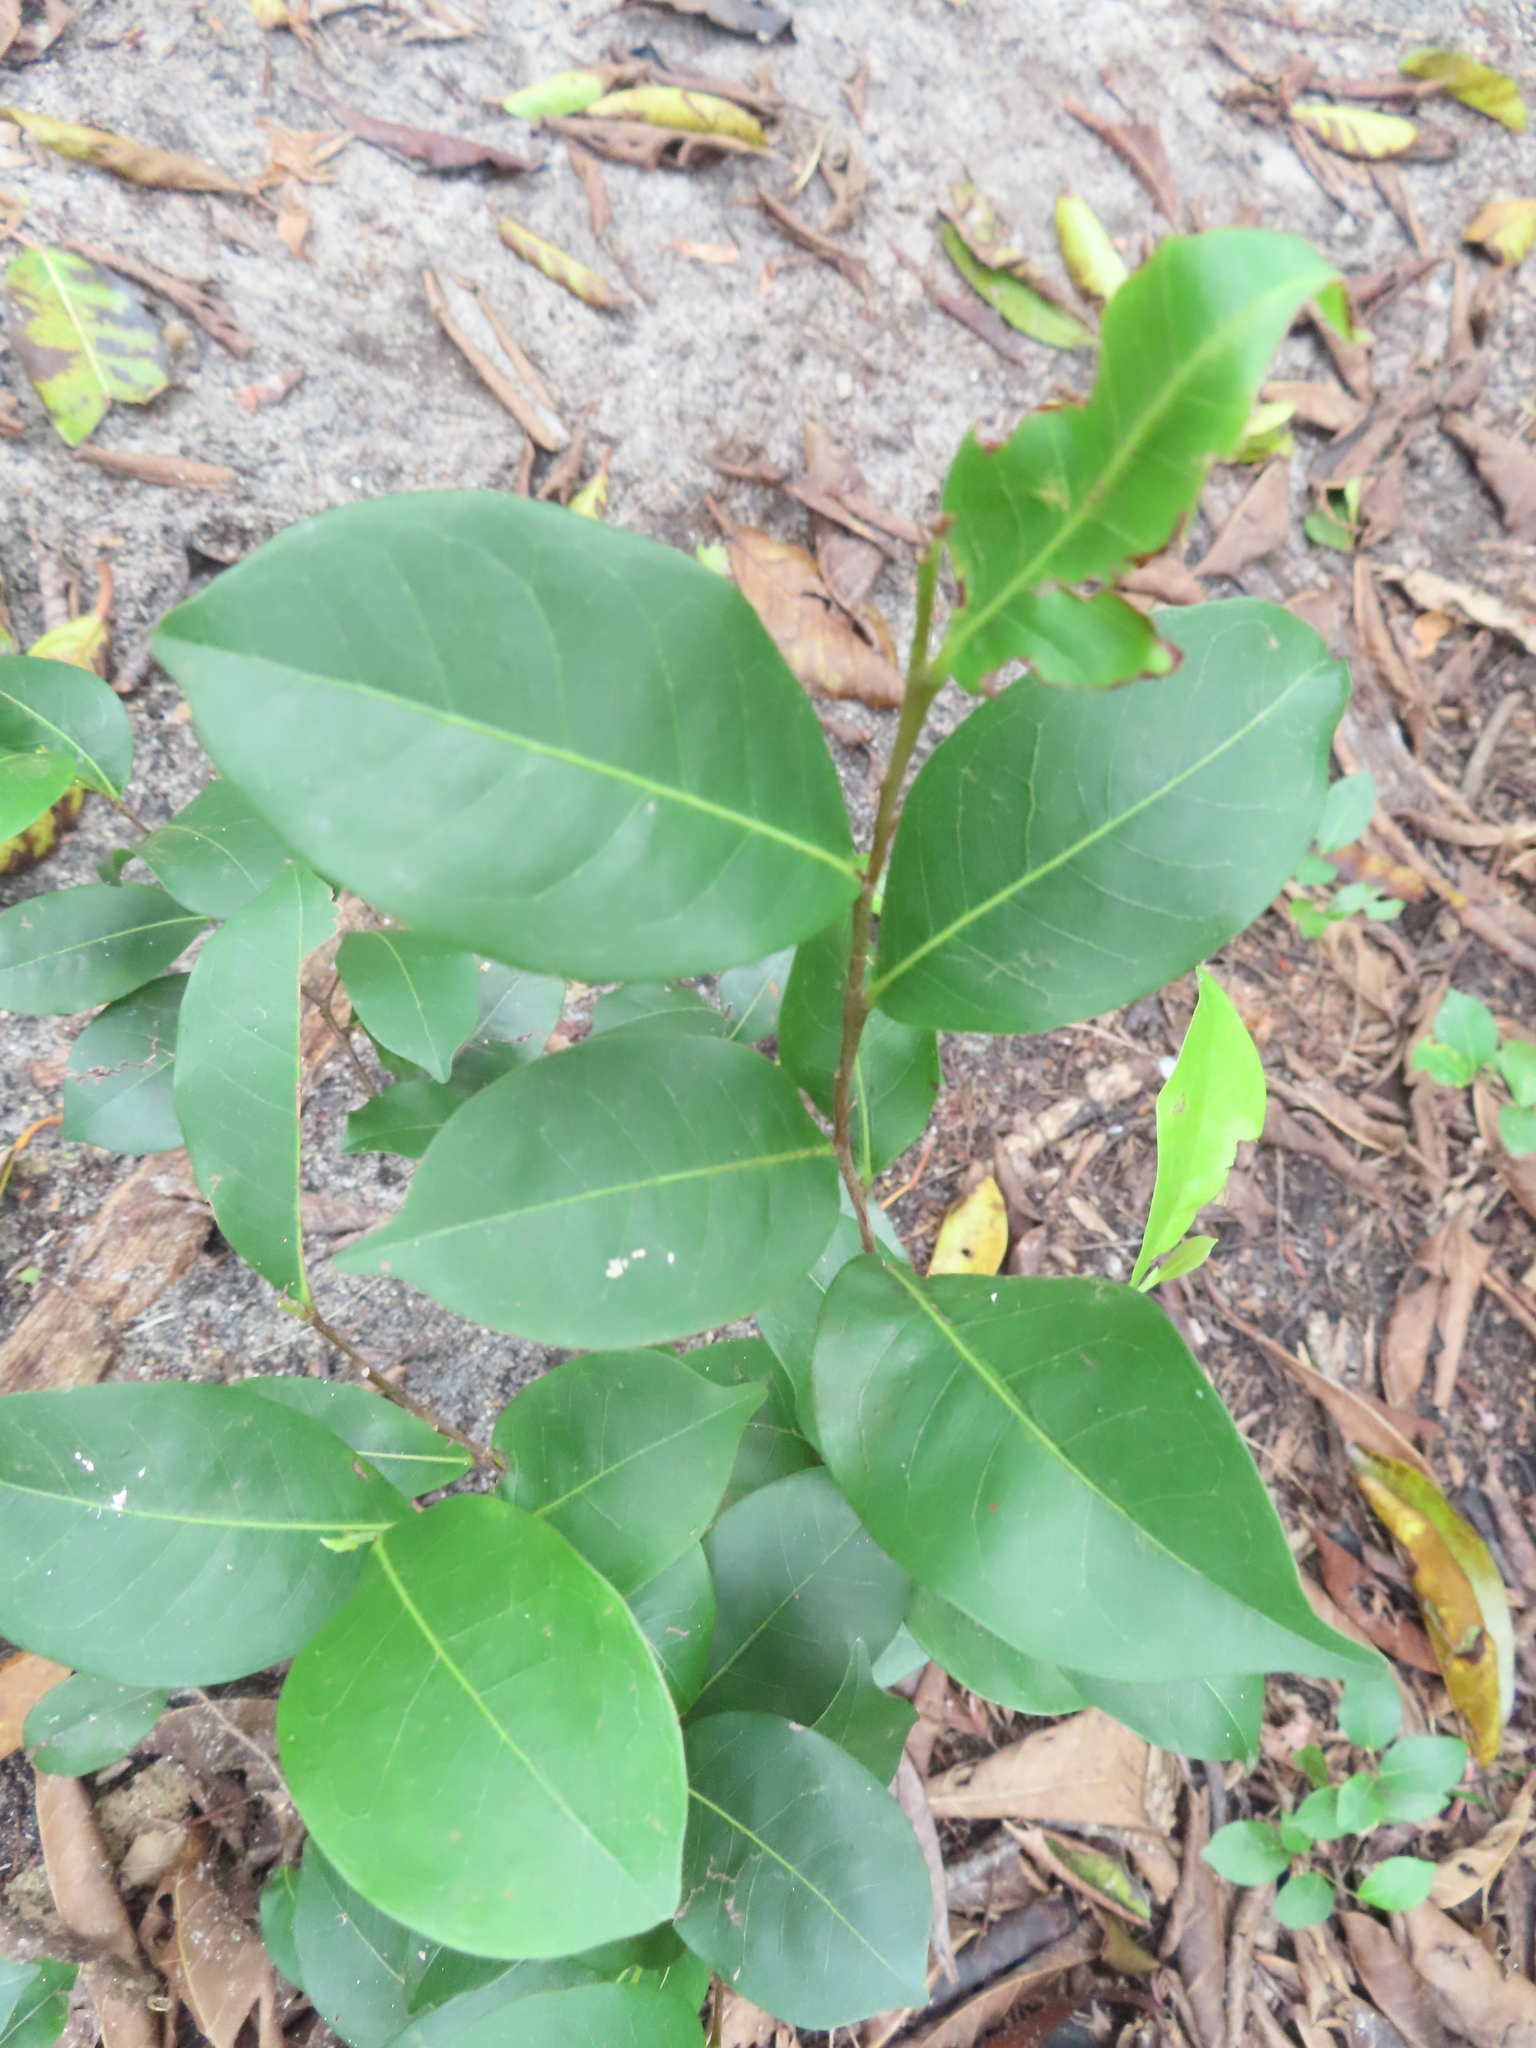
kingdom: Plantae
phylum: Tracheophyta
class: Magnoliopsida
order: Malpighiales
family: Chrysobalanaceae
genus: Chrysobalanus
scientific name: Chrysobalanus icaco
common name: Coco plum
